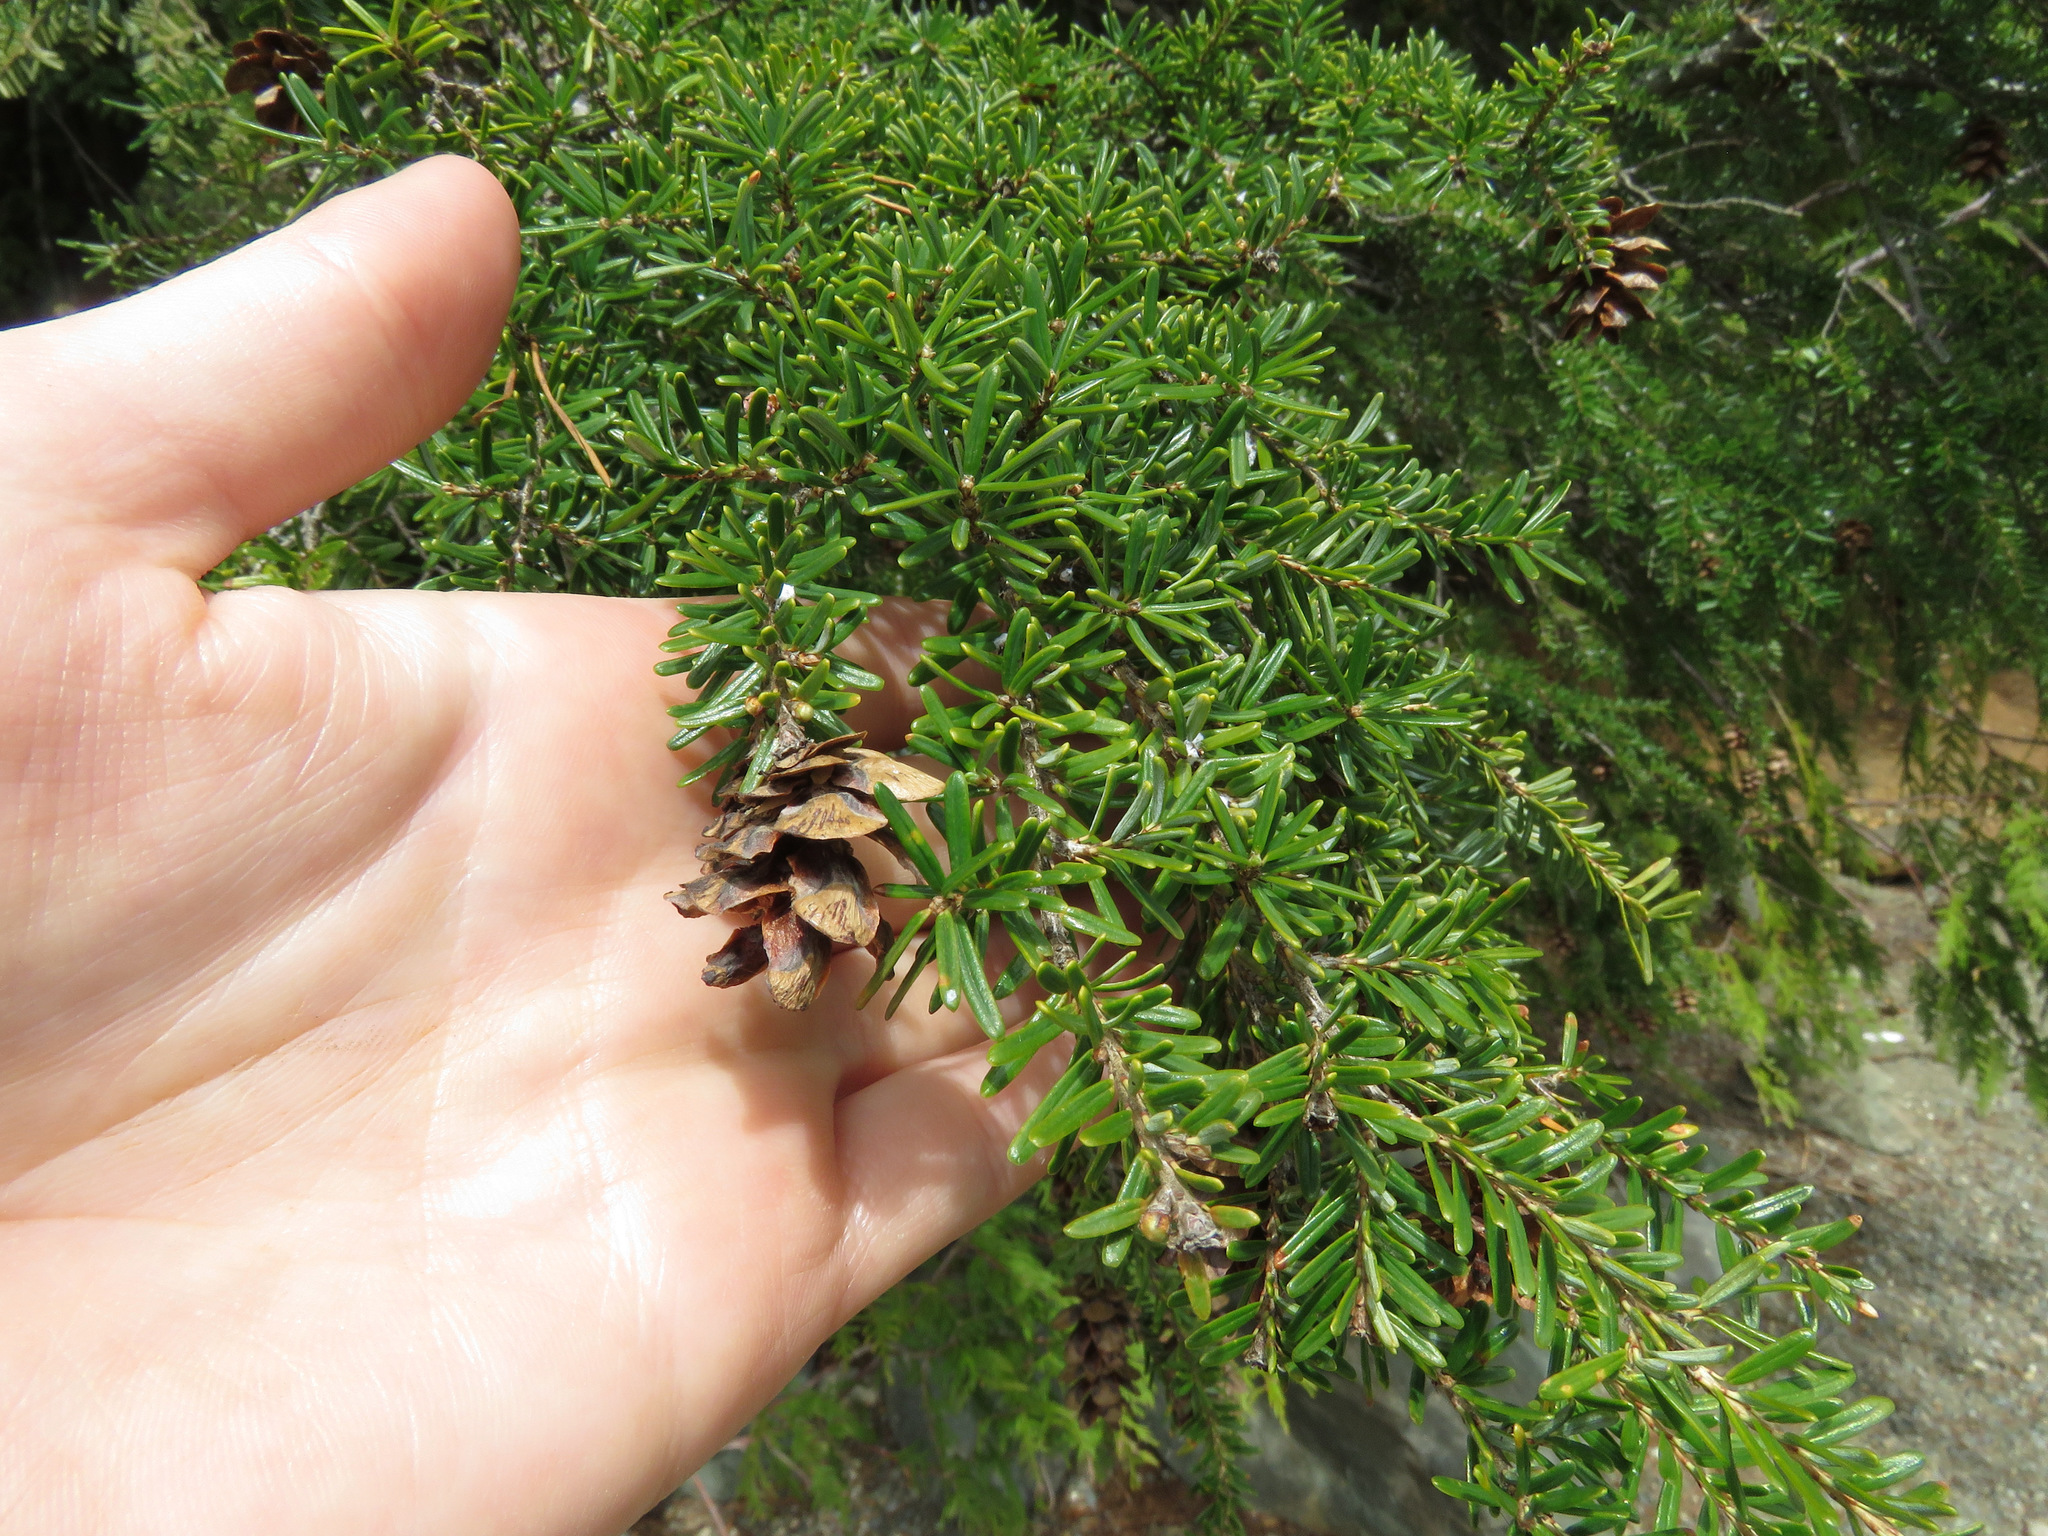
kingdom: Plantae
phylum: Tracheophyta
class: Pinopsida
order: Pinales
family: Pinaceae
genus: Tsuga
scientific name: Tsuga heterophylla
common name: Western hemlock
